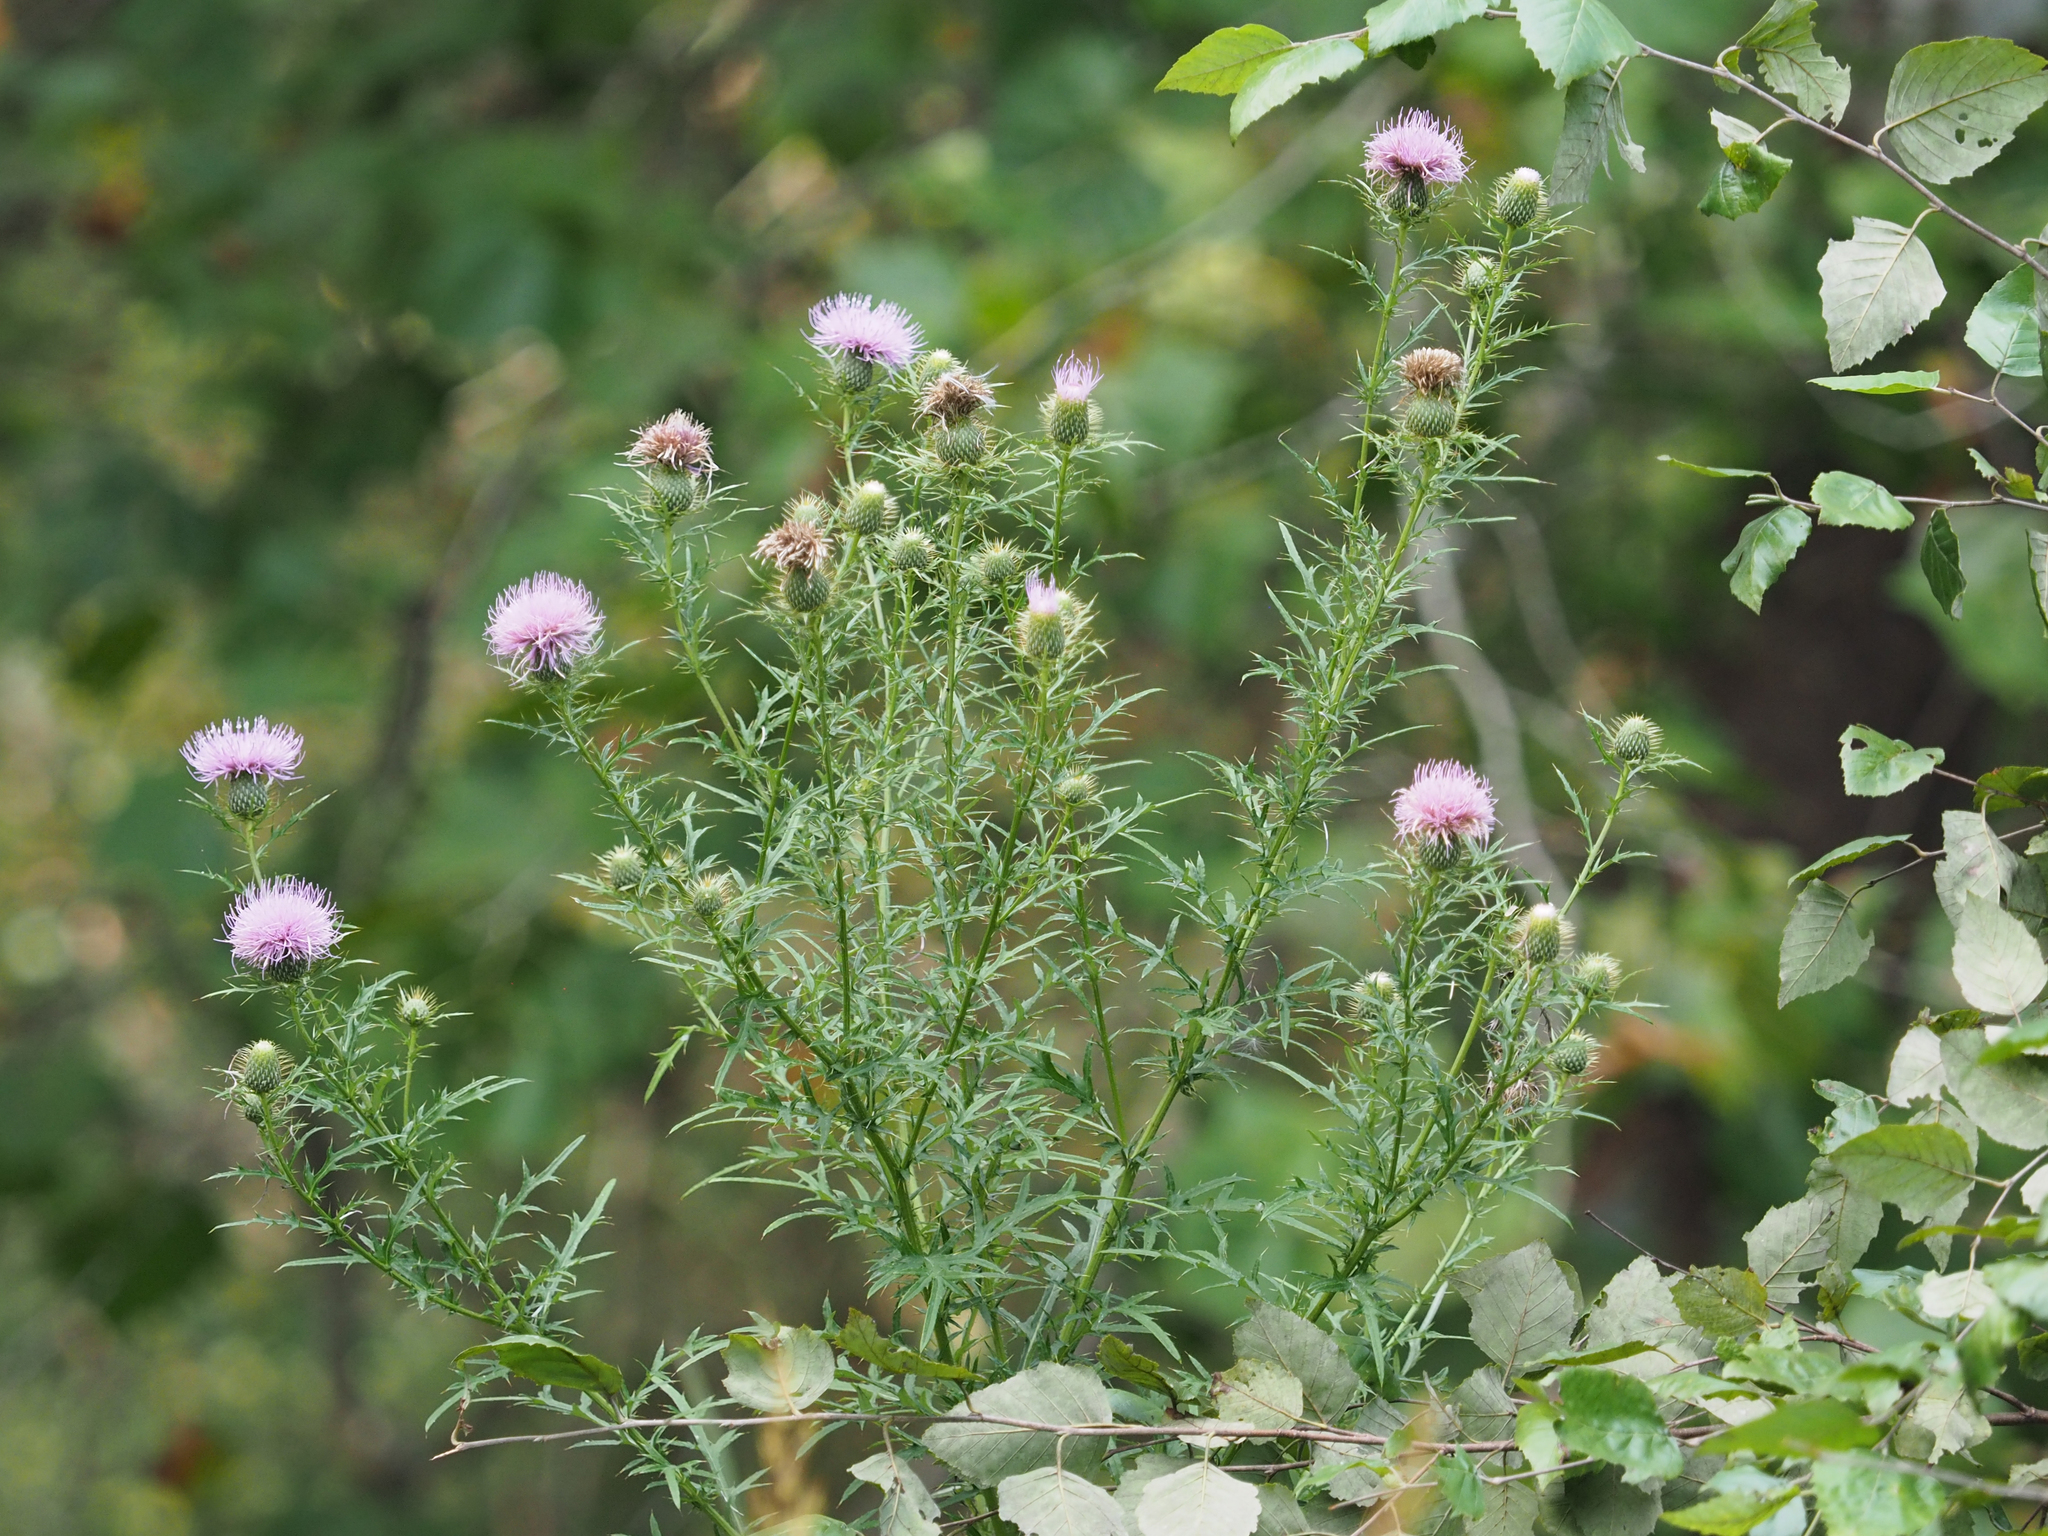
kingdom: Plantae
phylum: Tracheophyta
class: Magnoliopsida
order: Asterales
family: Asteraceae
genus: Cirsium
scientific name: Cirsium discolor
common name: Field thistle
